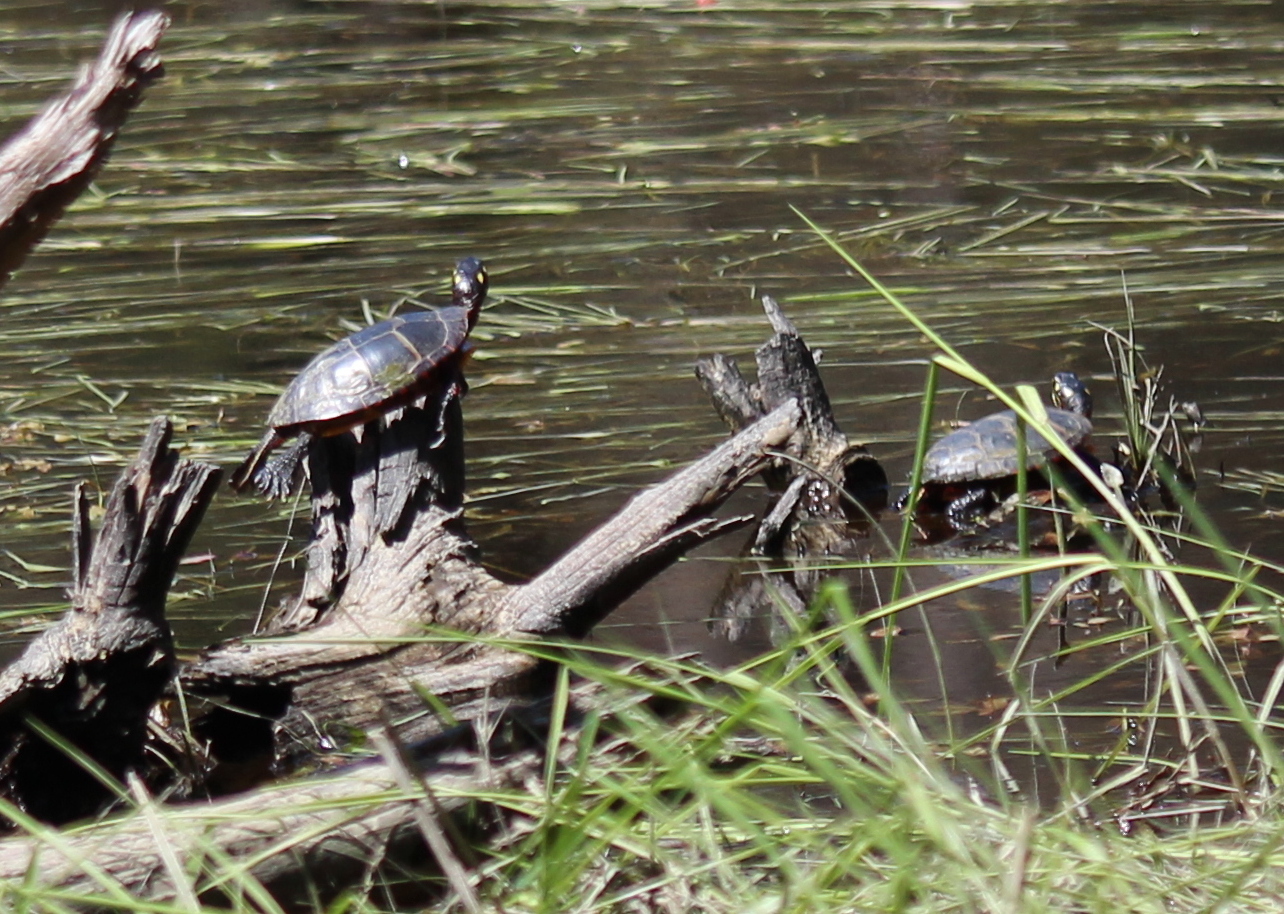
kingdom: Animalia
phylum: Chordata
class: Testudines
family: Emydidae
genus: Chrysemys
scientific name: Chrysemys picta
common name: Painted turtle
